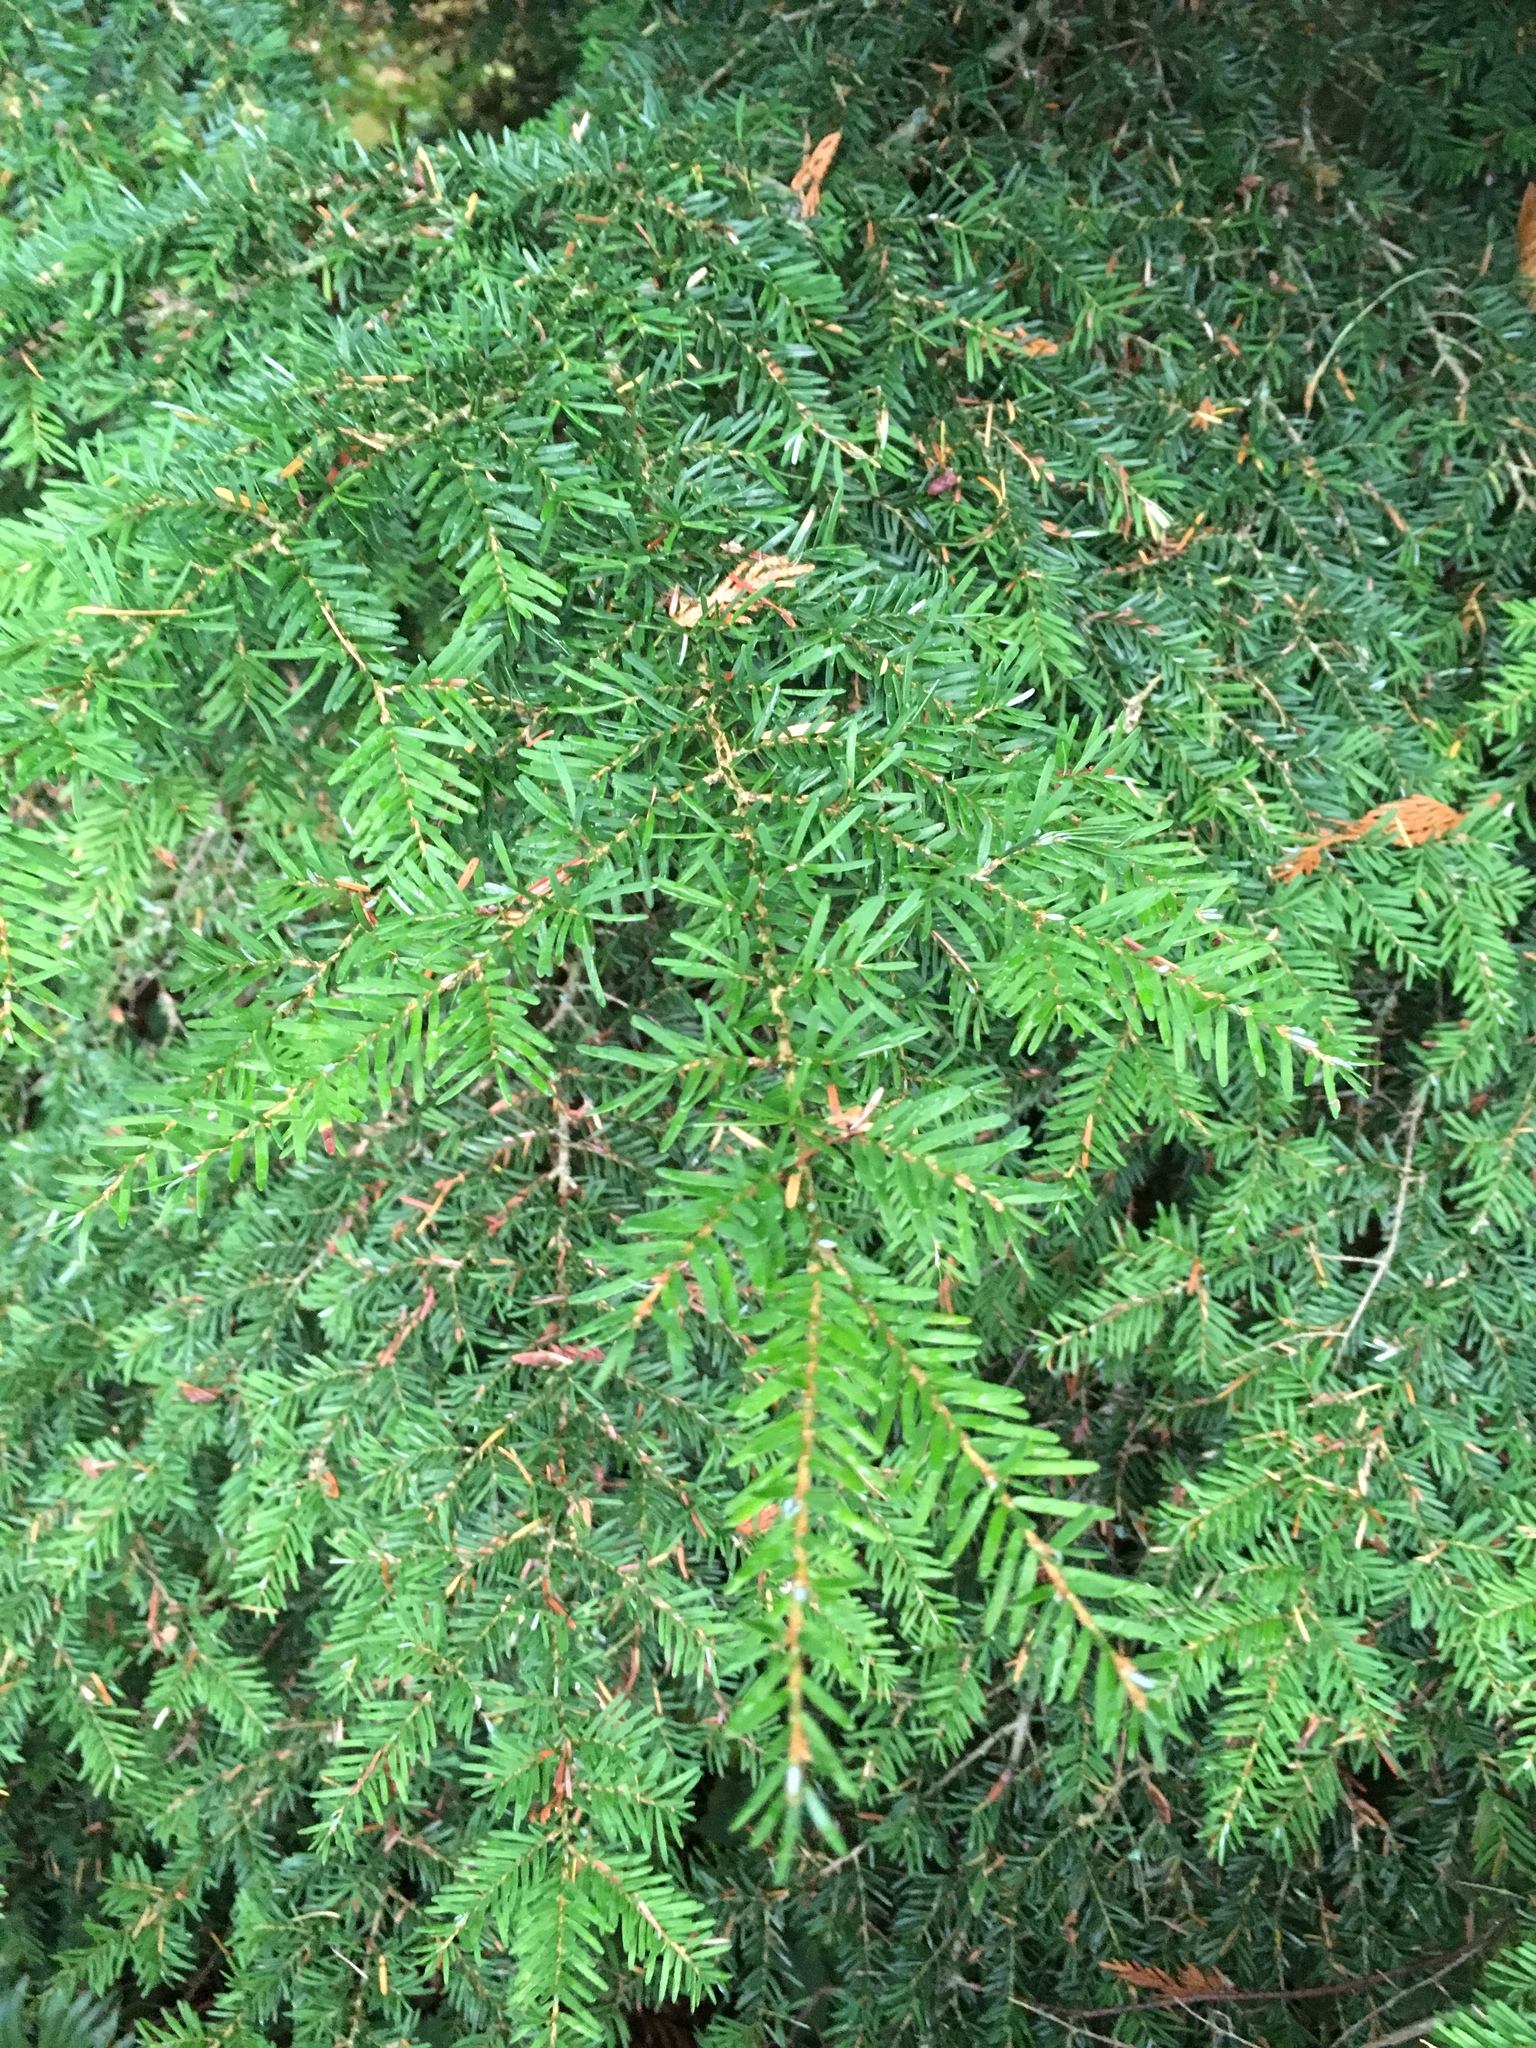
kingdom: Plantae
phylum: Tracheophyta
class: Pinopsida
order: Pinales
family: Pinaceae
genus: Tsuga
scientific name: Tsuga heterophylla
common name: Western hemlock
